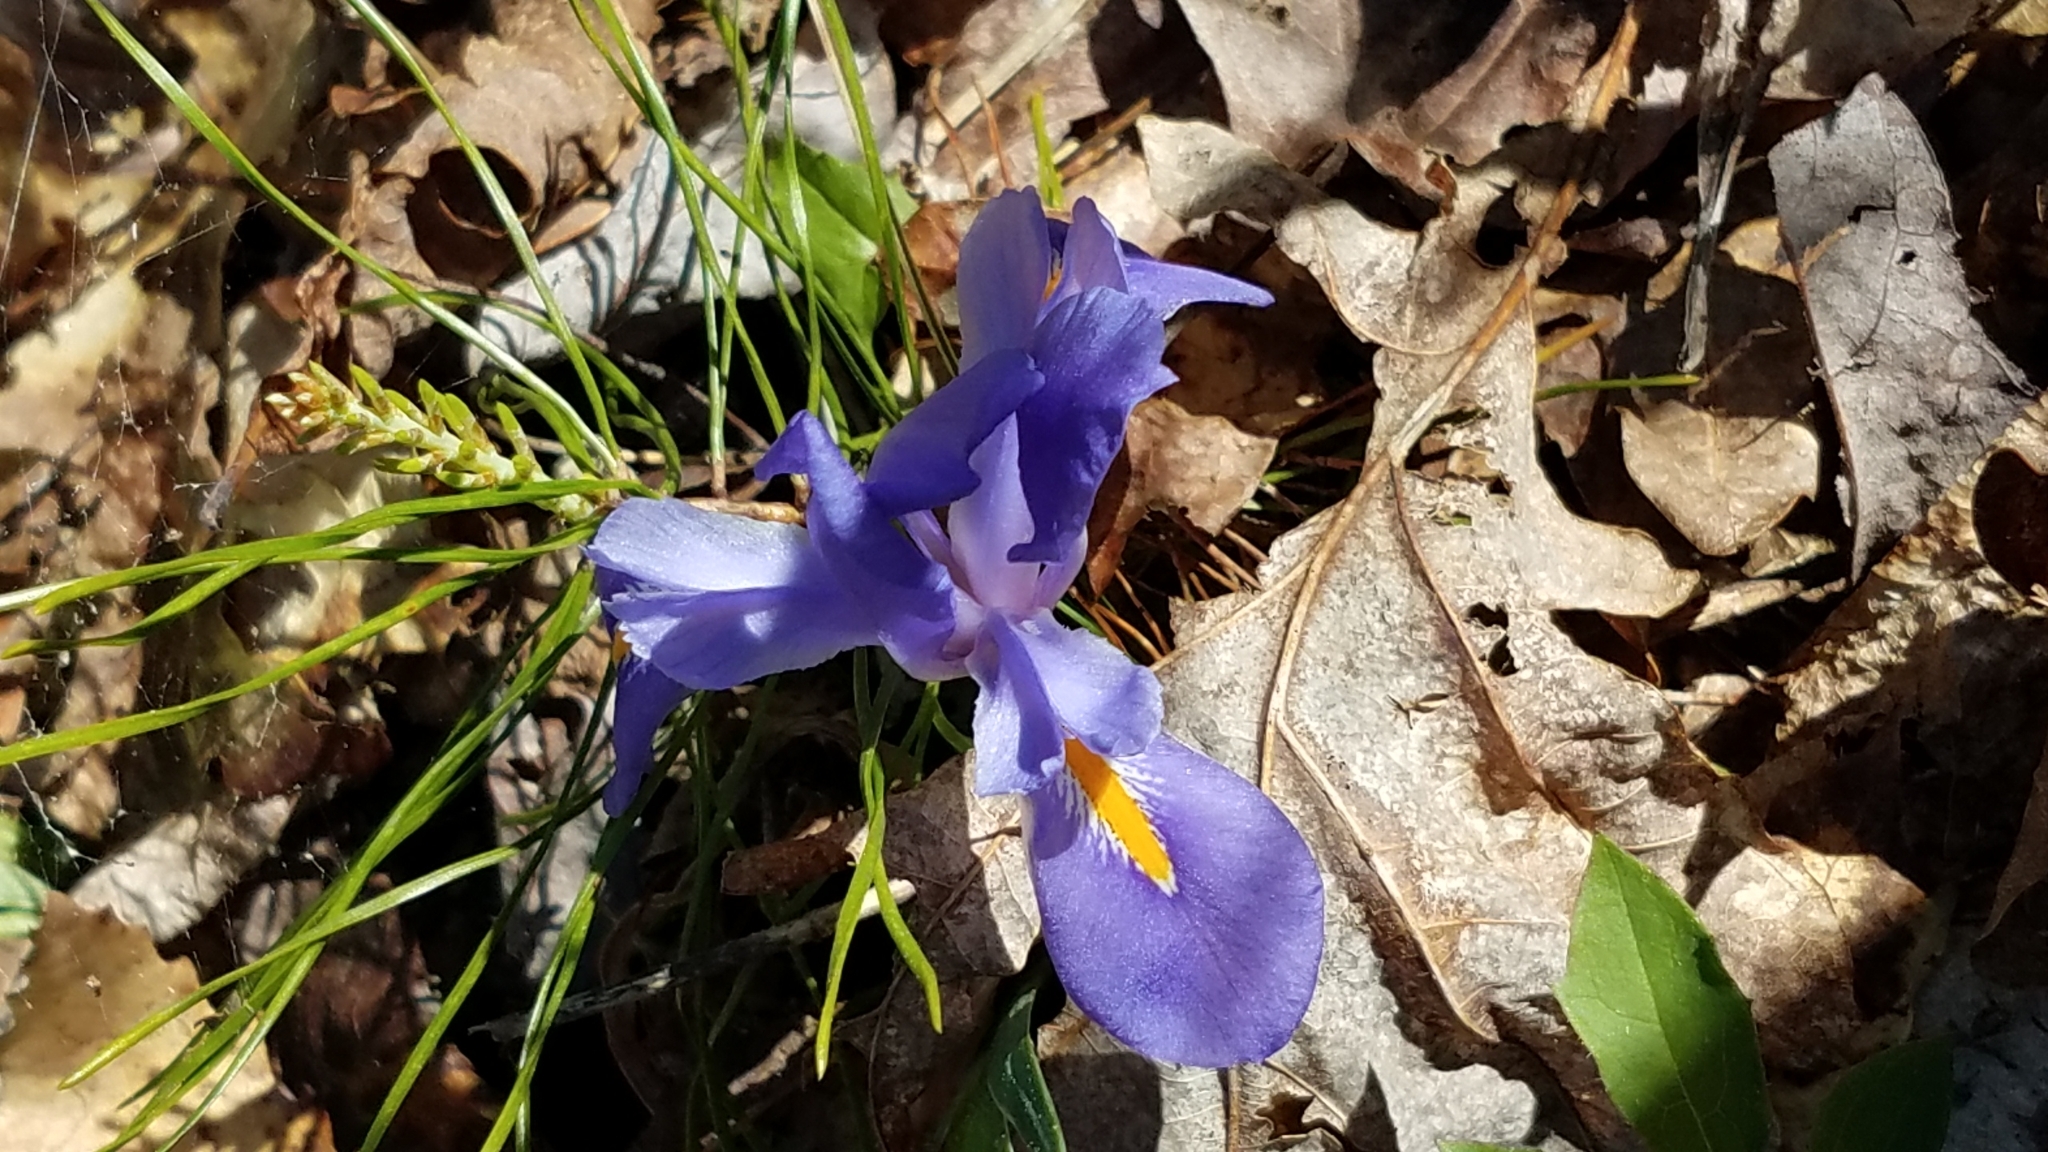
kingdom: Plantae
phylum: Tracheophyta
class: Liliopsida
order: Asparagales
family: Iridaceae
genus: Iris
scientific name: Iris verna
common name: Dwarf iris
